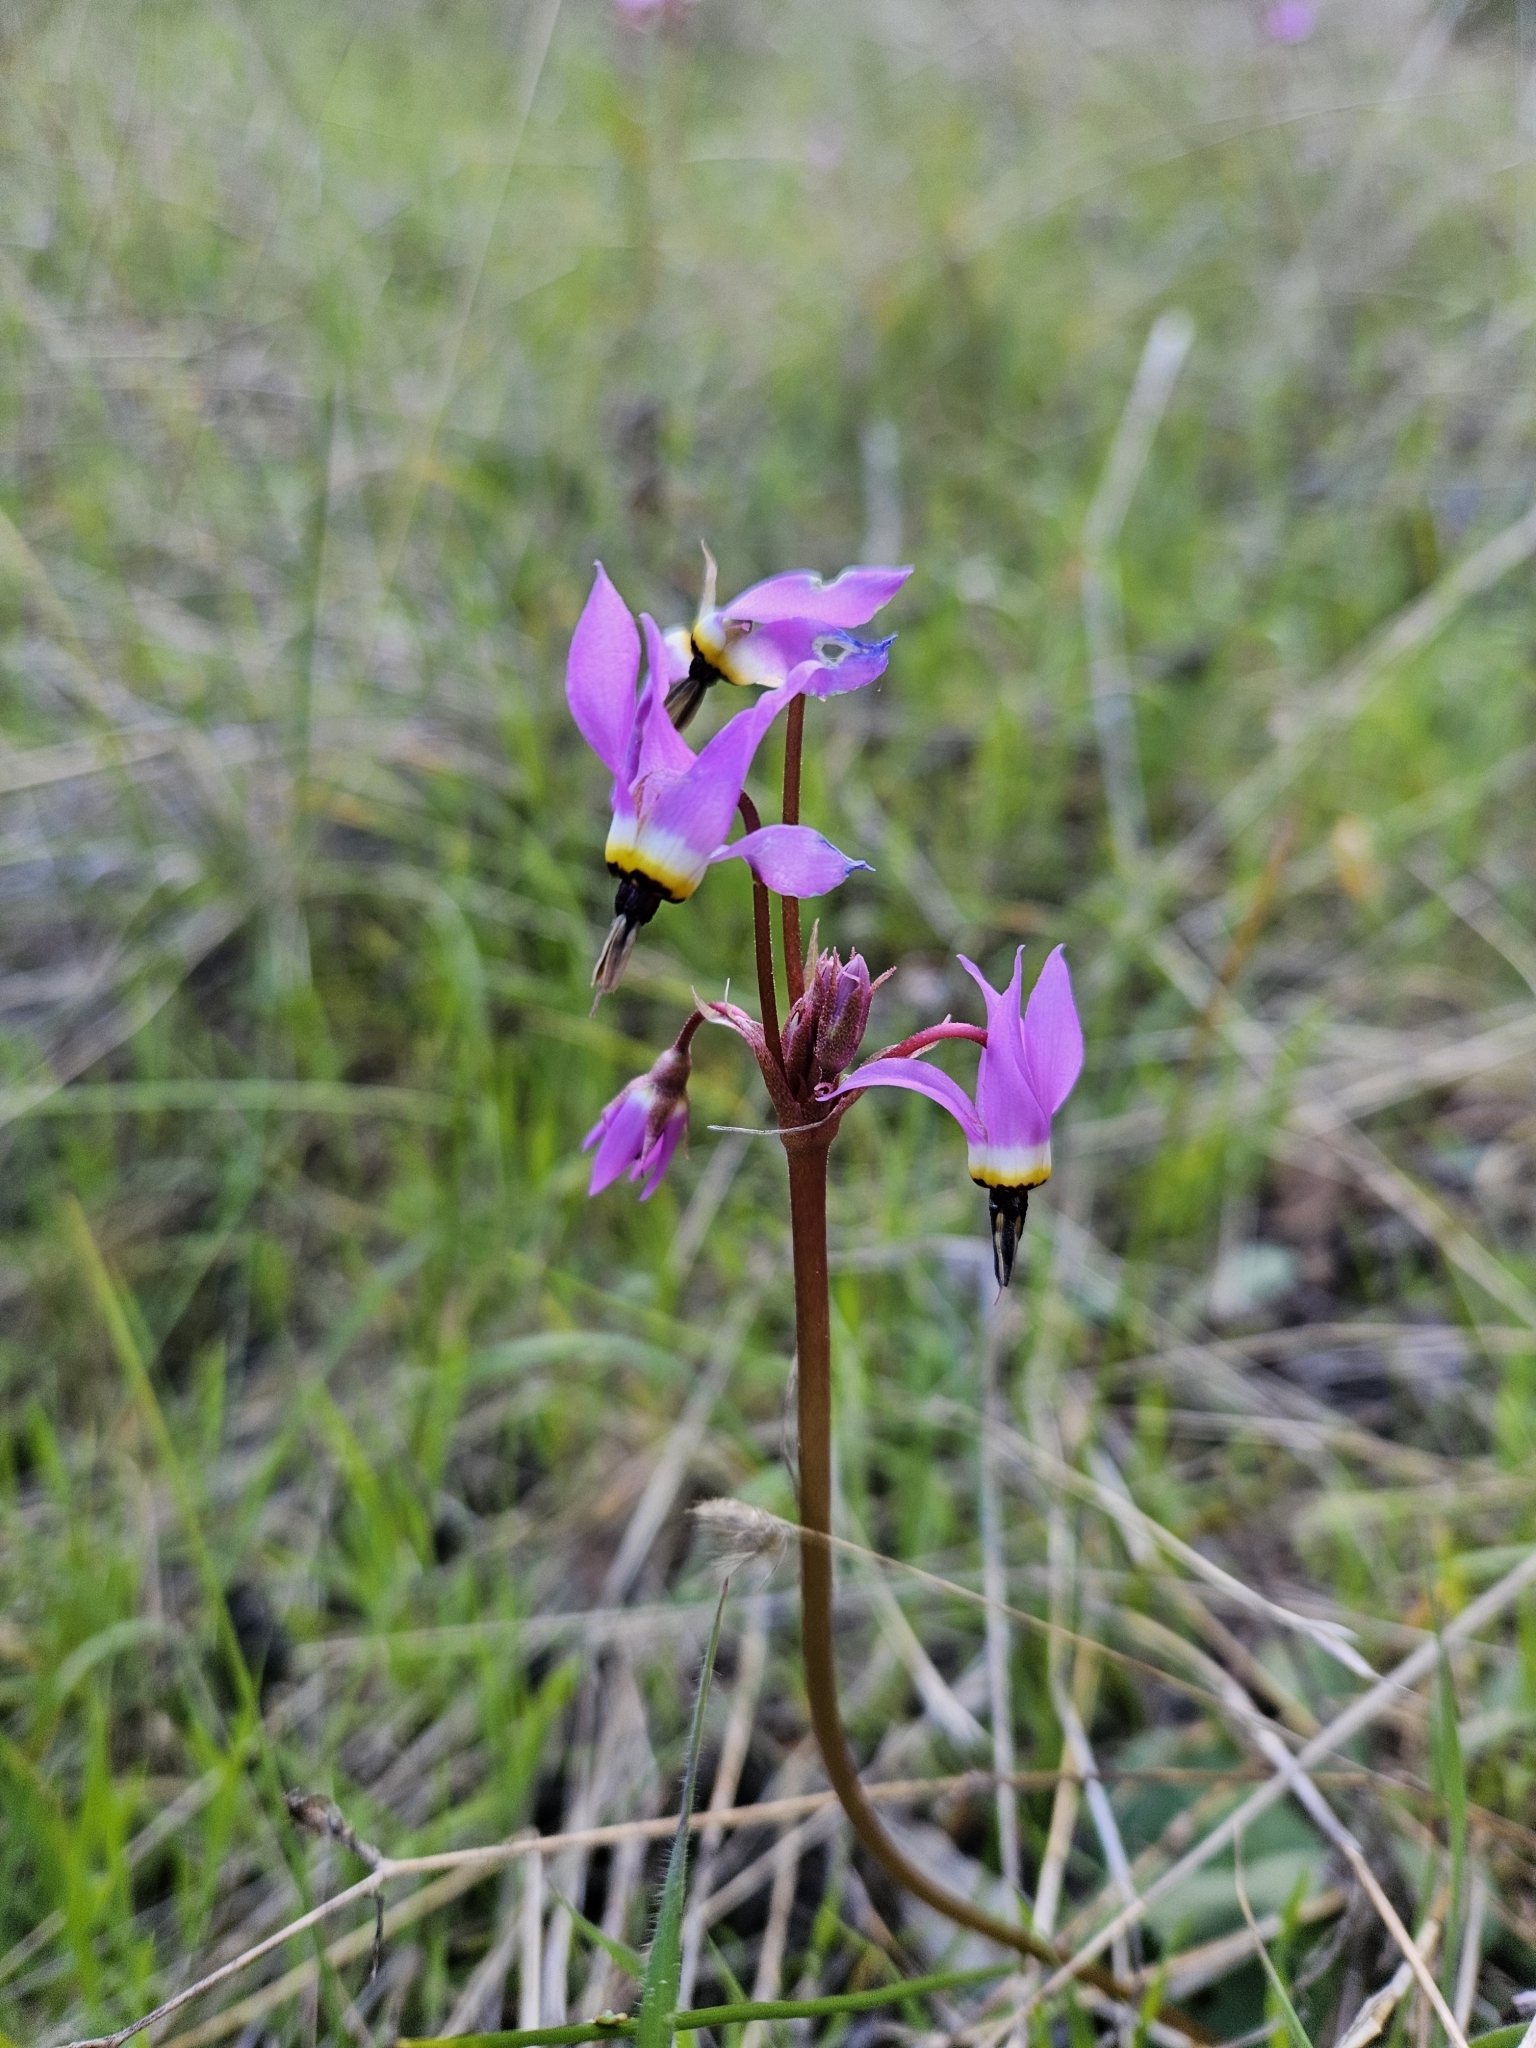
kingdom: Plantae
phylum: Tracheophyta
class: Magnoliopsida
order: Ericales
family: Primulaceae
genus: Dodecatheon
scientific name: Dodecatheon hendersonii
